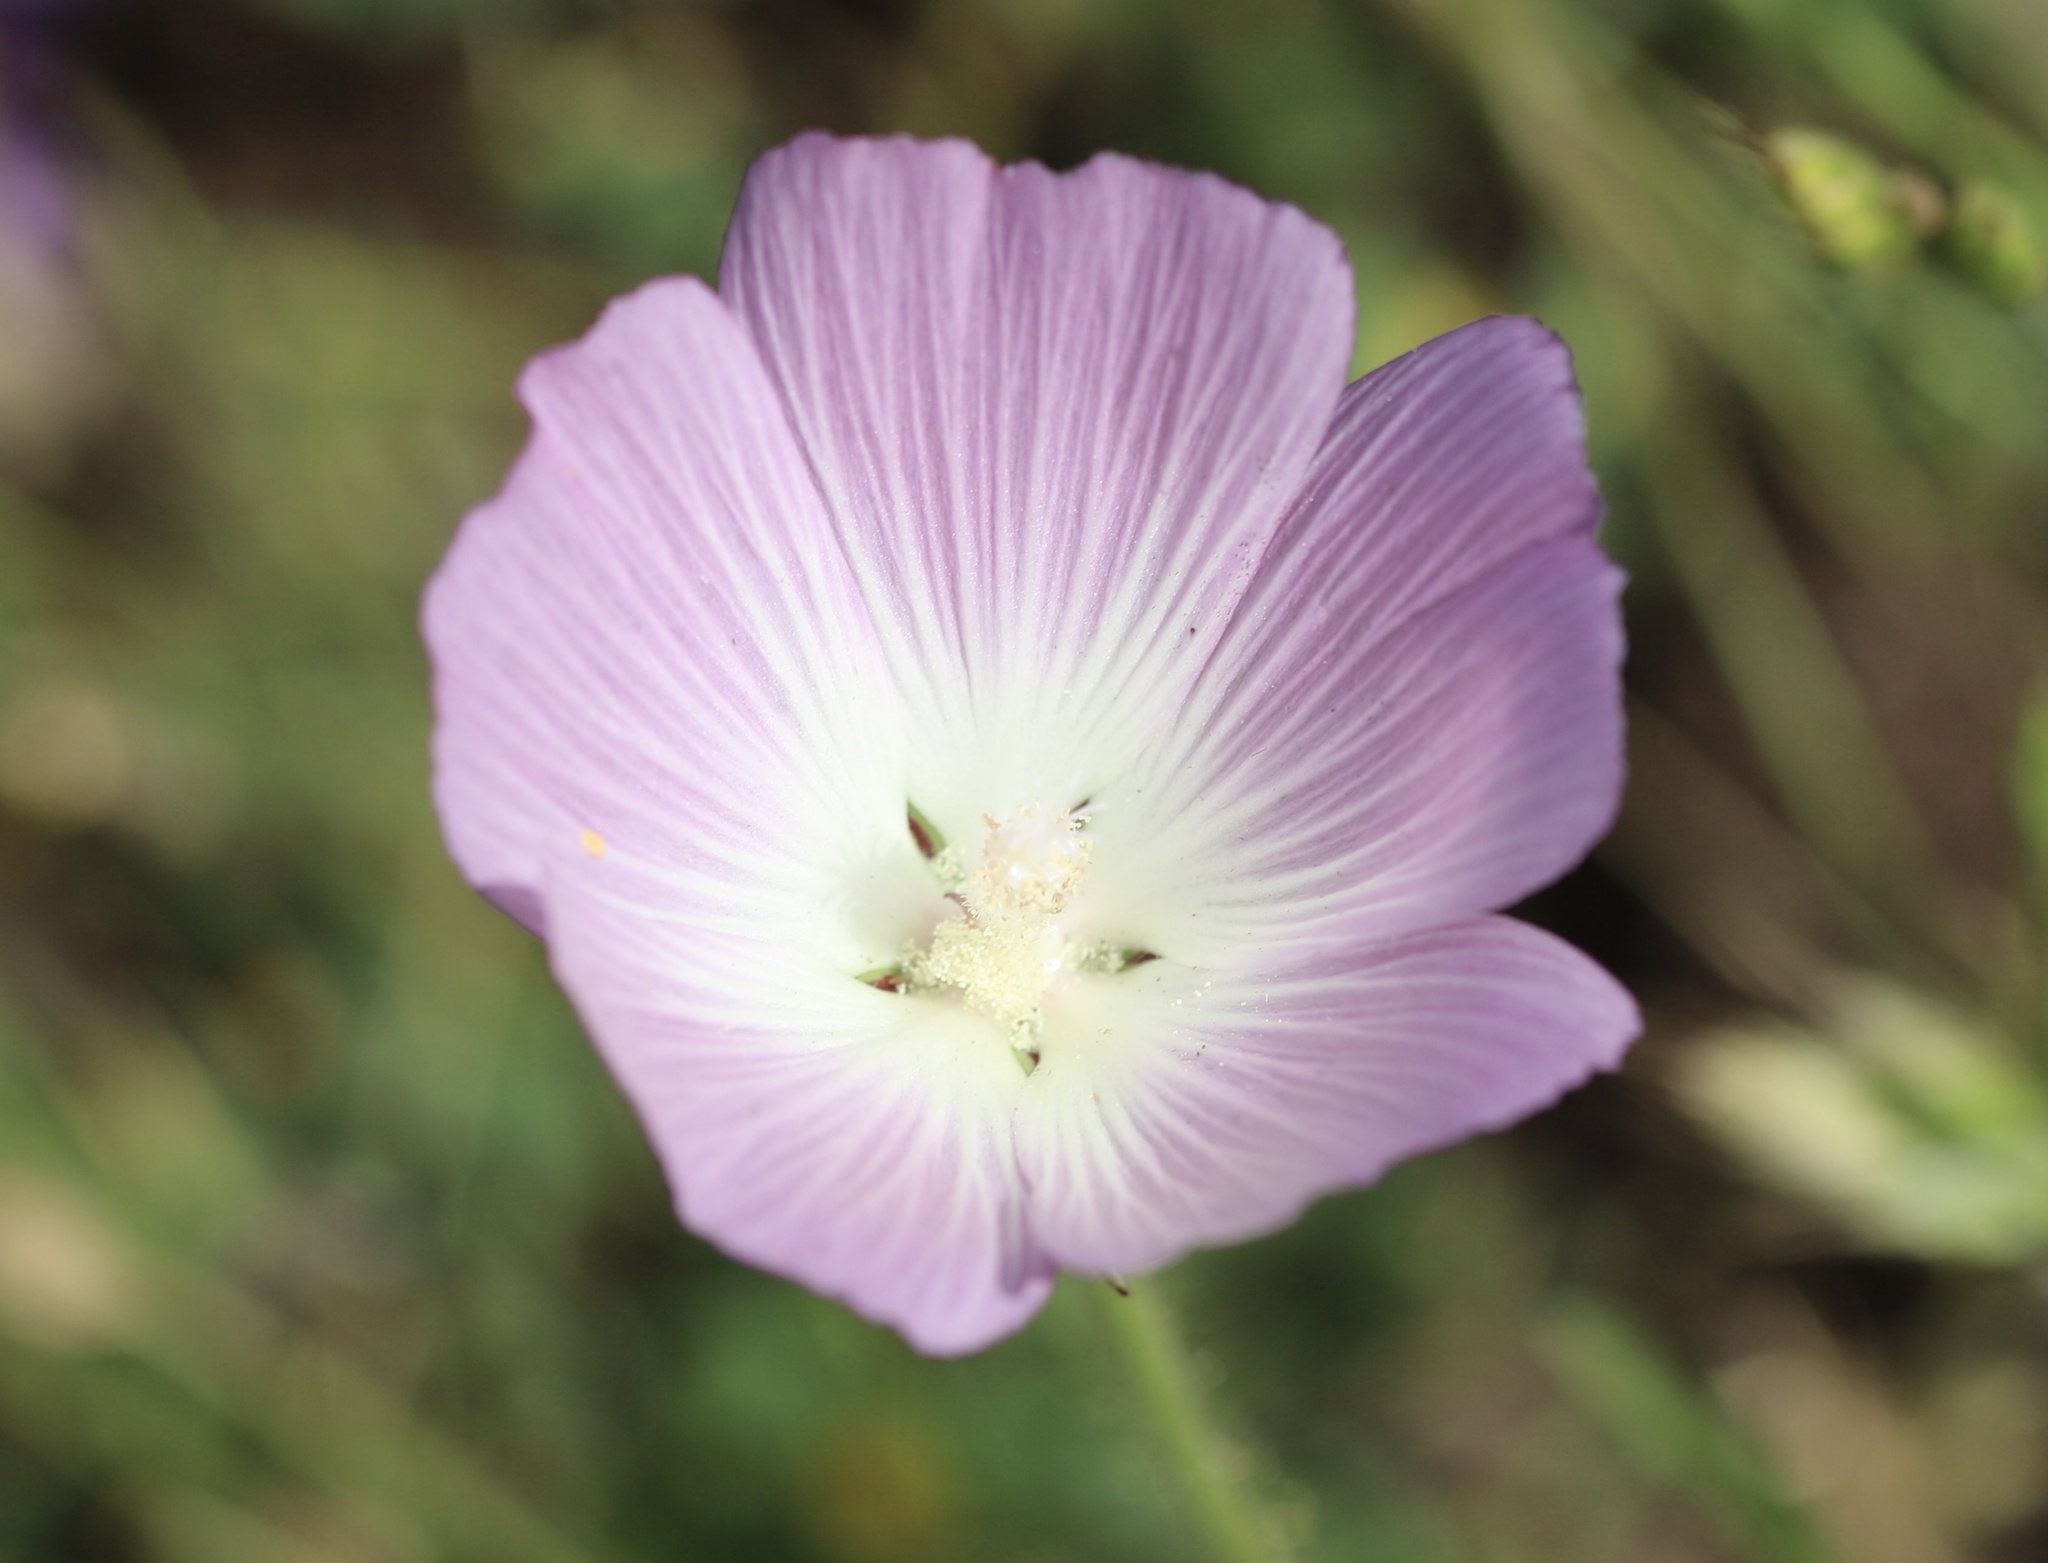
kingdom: Plantae
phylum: Tracheophyta
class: Magnoliopsida
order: Malvales
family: Malvaceae
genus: Sidalcea
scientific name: Sidalcea diploscypha
